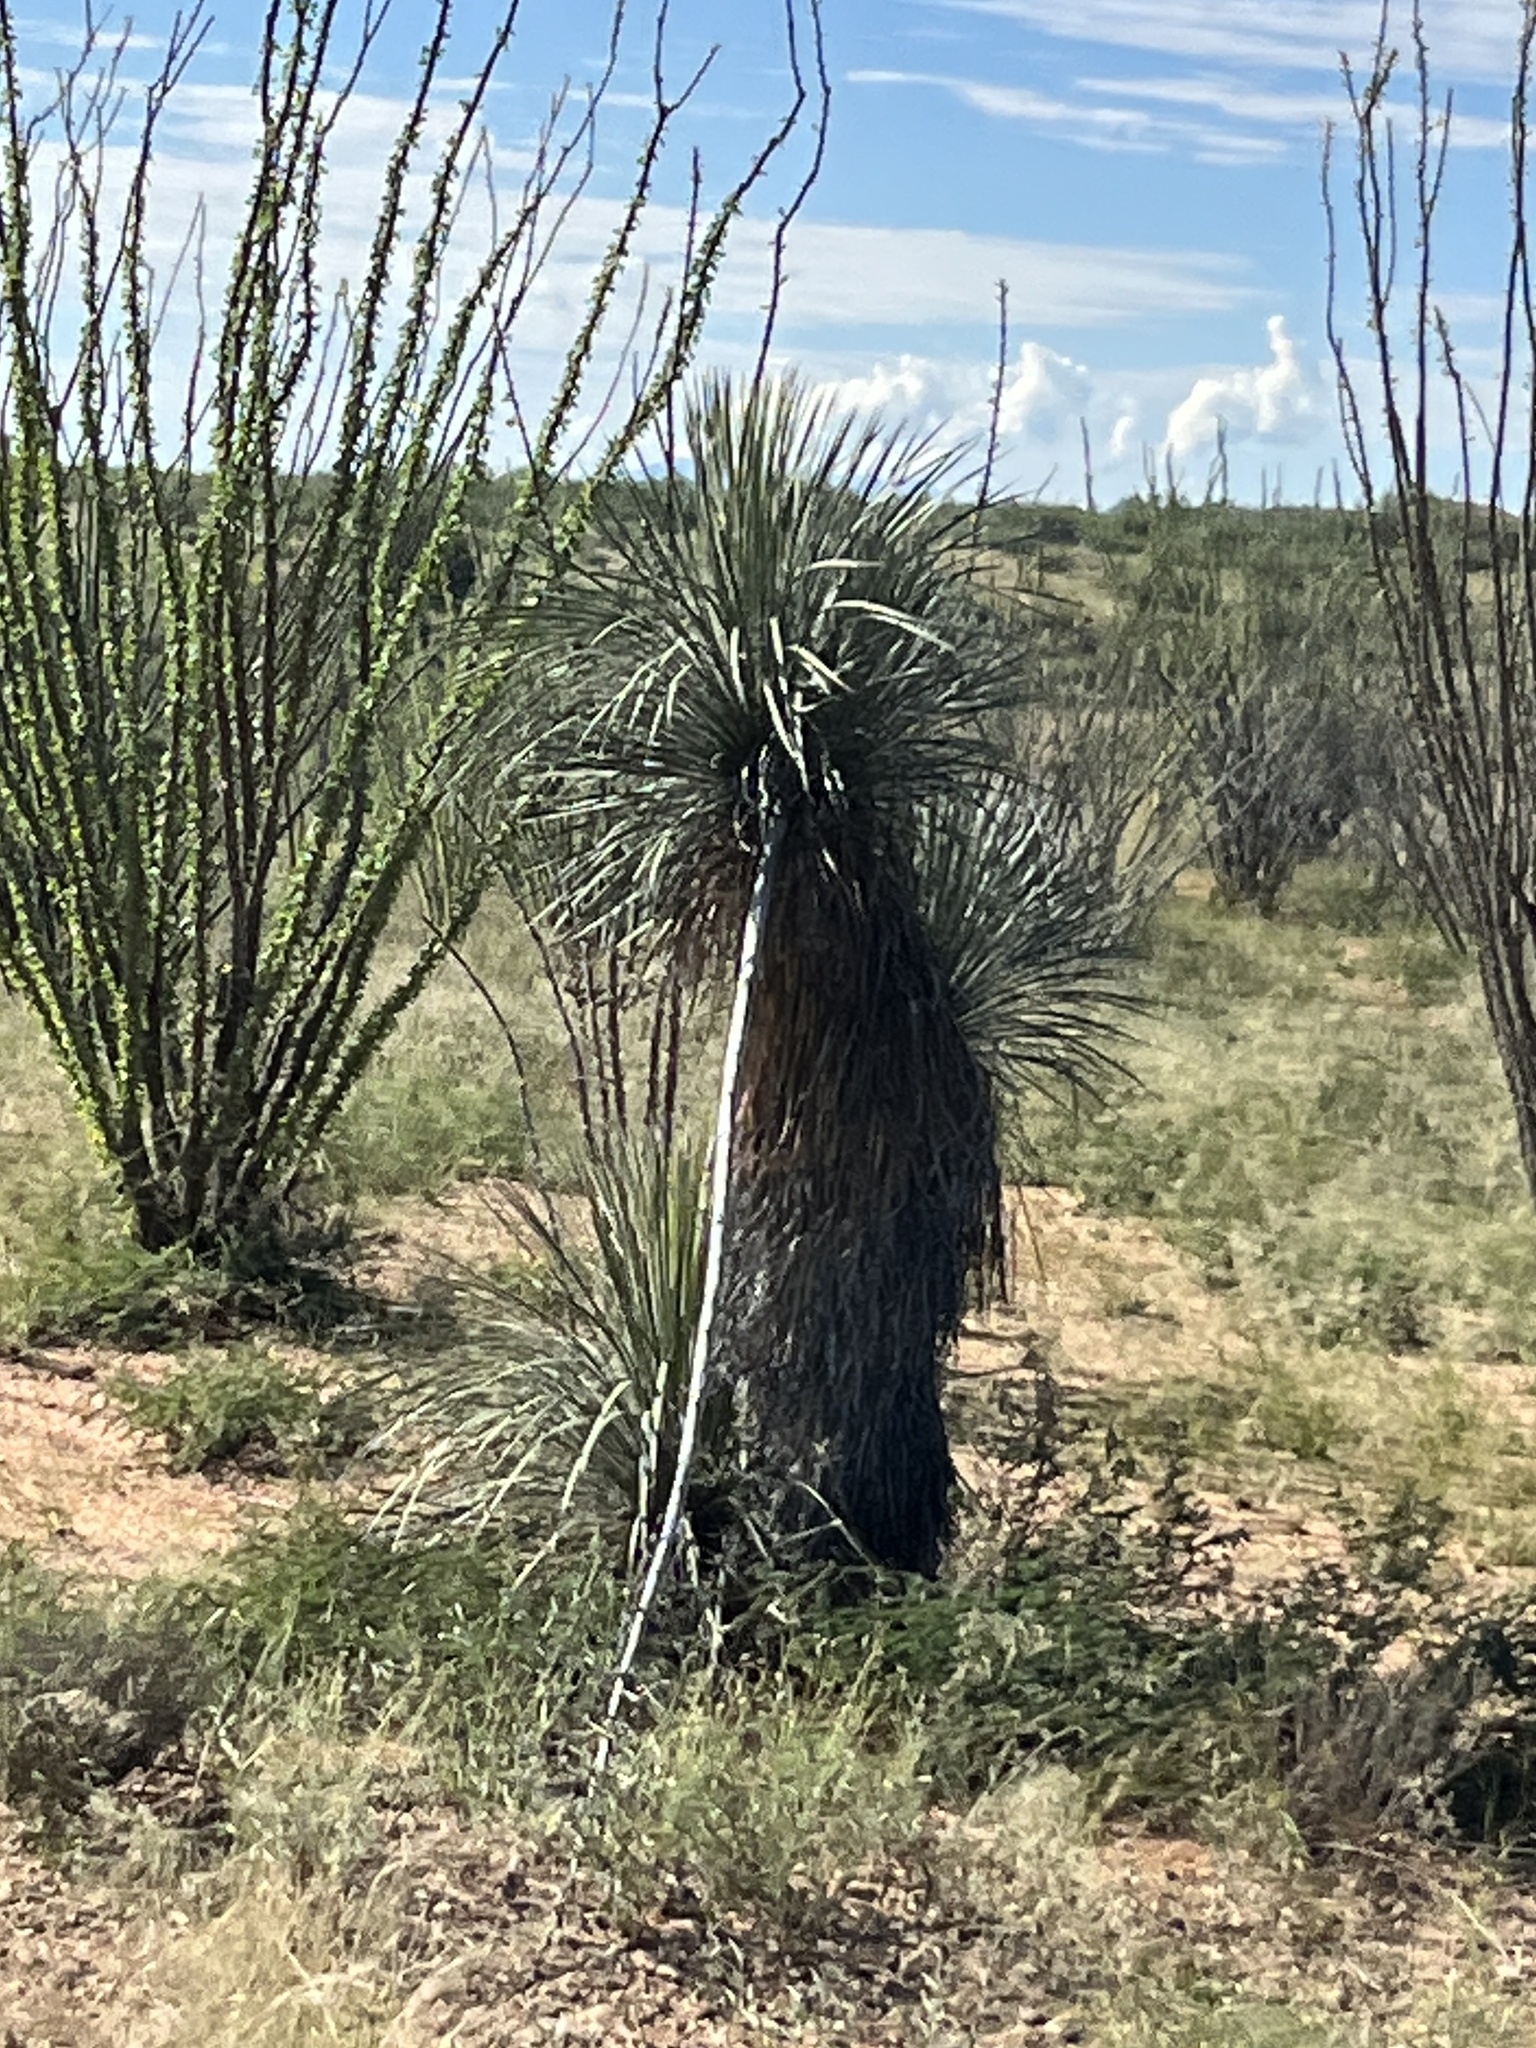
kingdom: Plantae
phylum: Tracheophyta
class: Liliopsida
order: Asparagales
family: Asparagaceae
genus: Yucca
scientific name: Yucca elata
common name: Palmella
